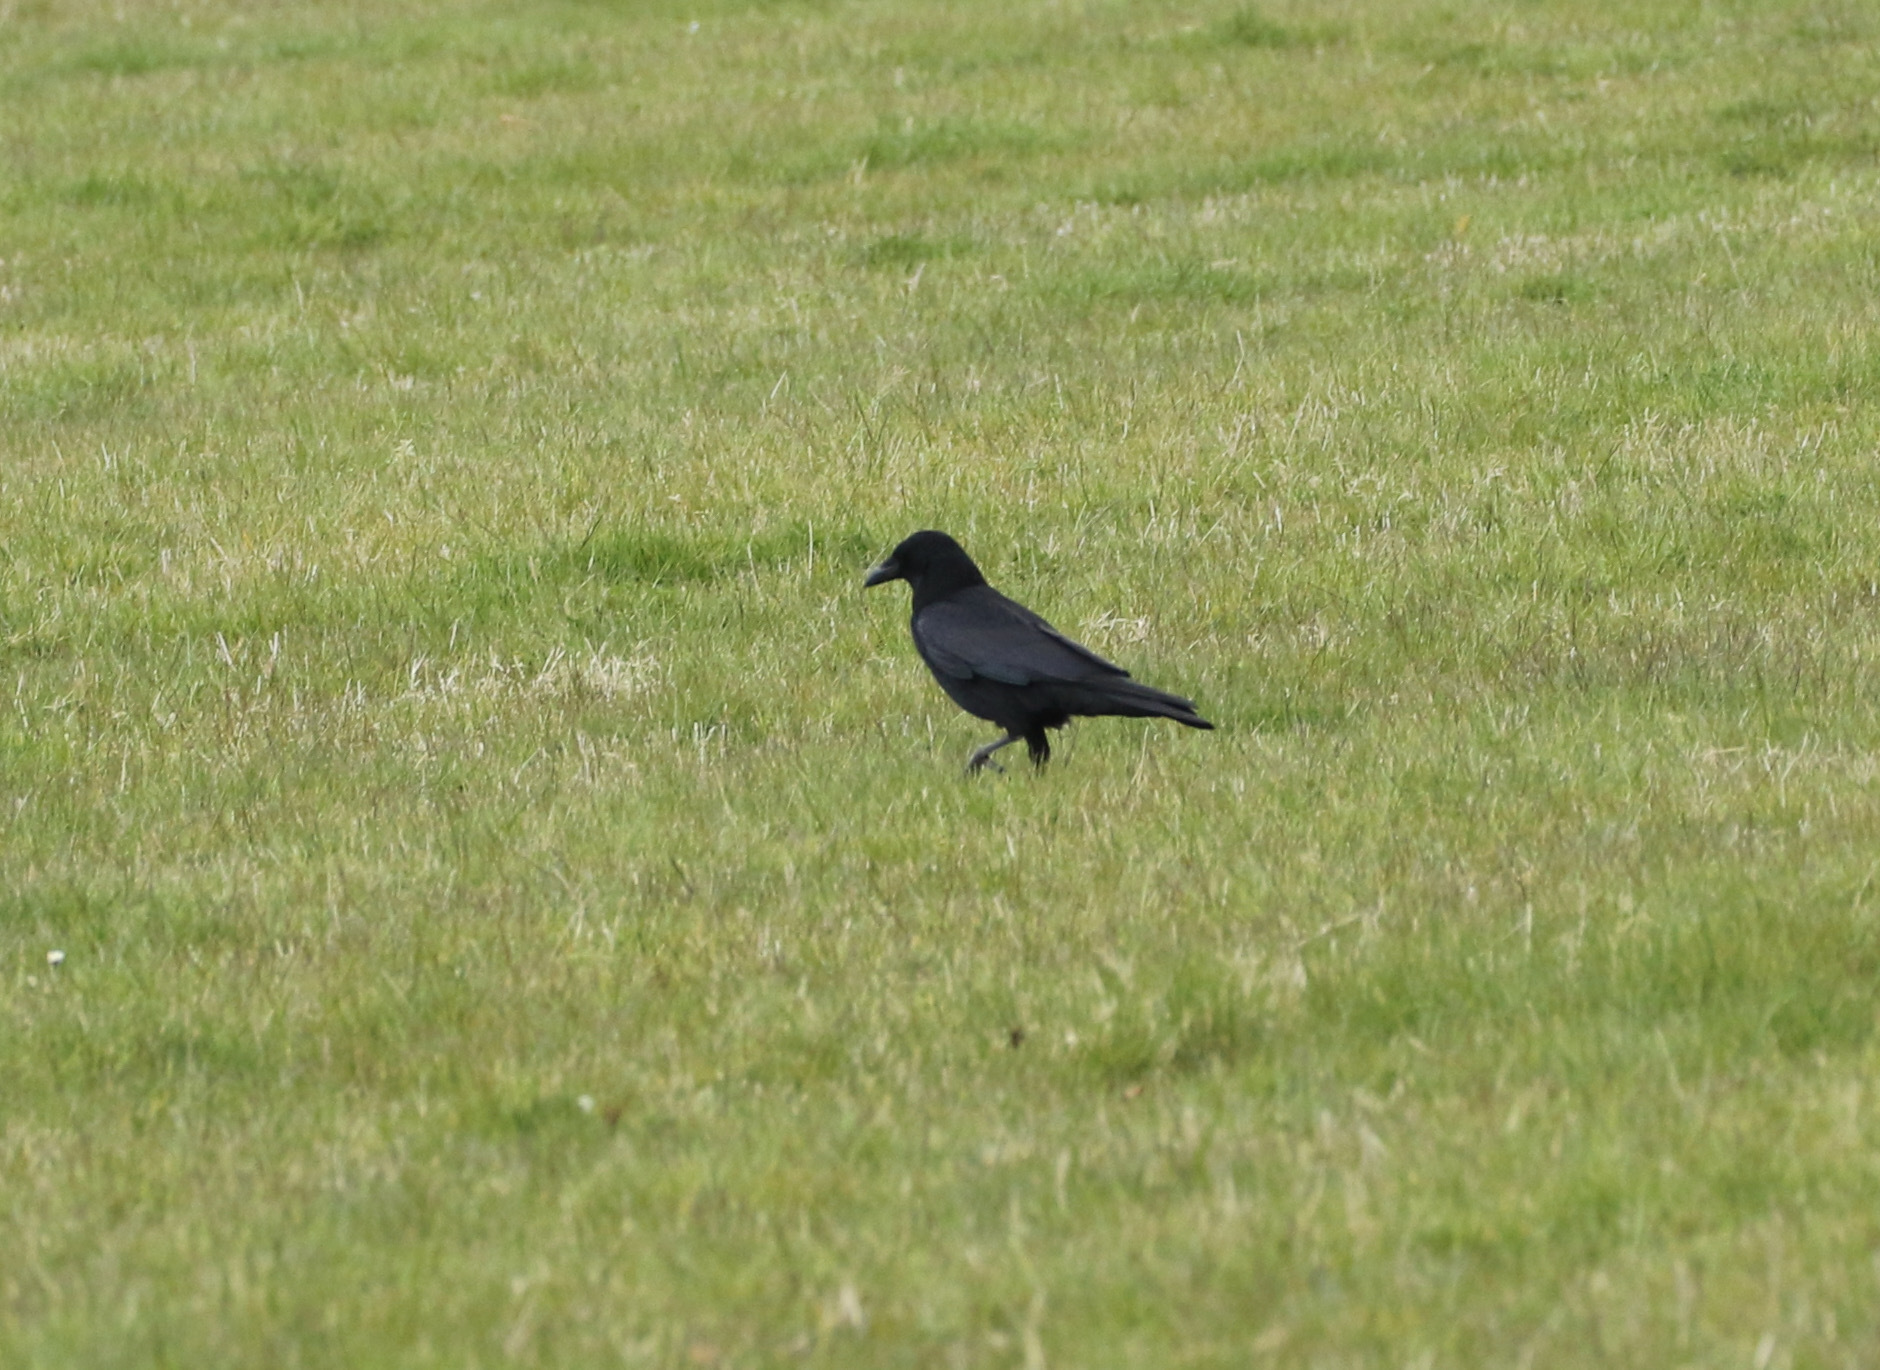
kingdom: Animalia
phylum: Chordata
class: Aves
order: Passeriformes
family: Corvidae
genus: Corvus
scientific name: Corvus corone
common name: Carrion crow
